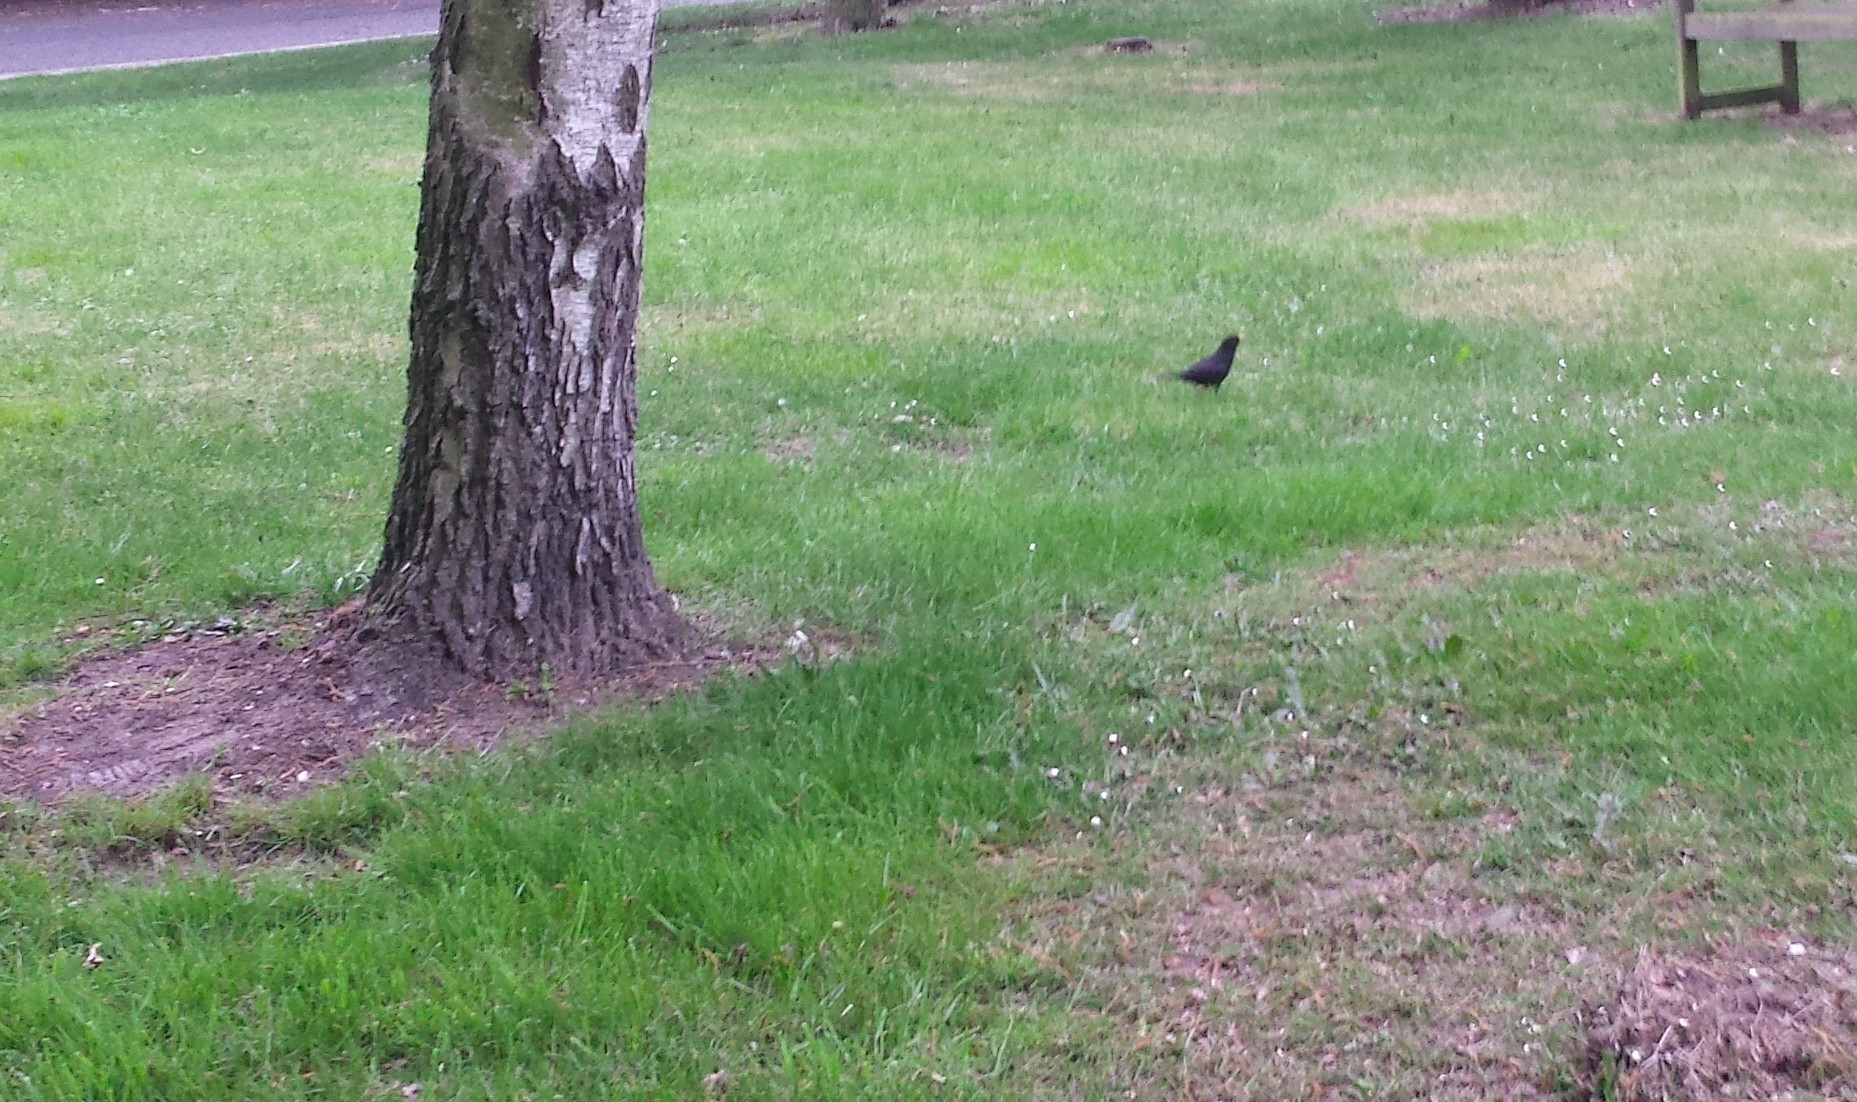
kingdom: Animalia
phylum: Chordata
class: Aves
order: Passeriformes
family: Turdidae
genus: Turdus
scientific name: Turdus merula
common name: Common blackbird
